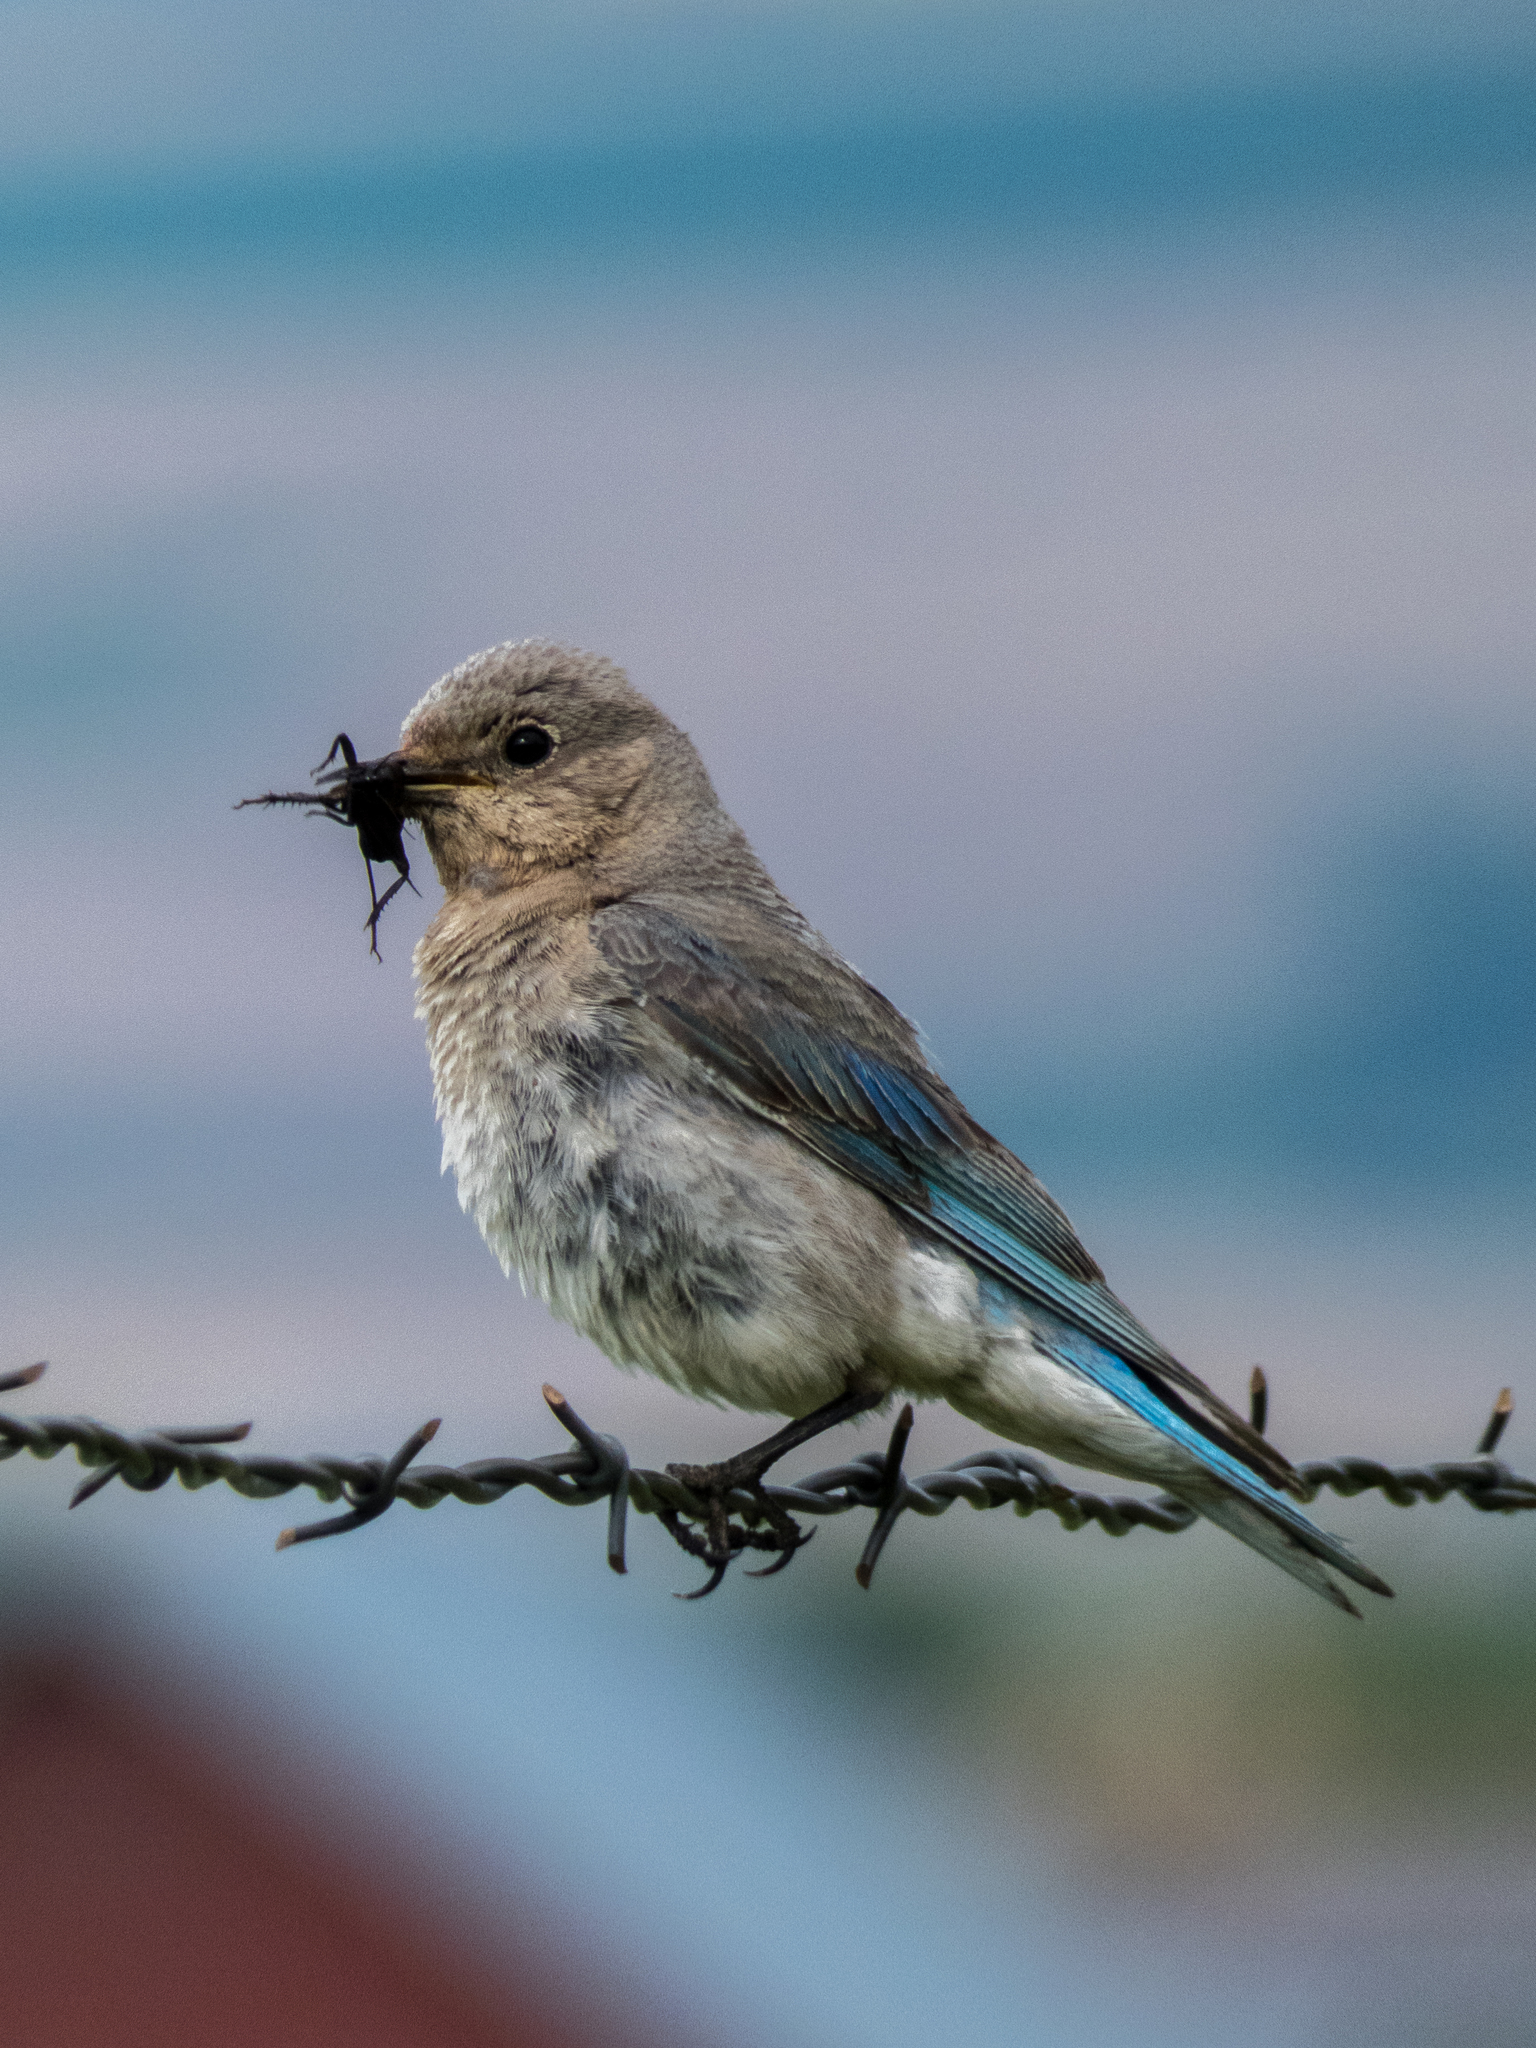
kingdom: Animalia
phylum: Chordata
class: Aves
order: Passeriformes
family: Turdidae
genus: Sialia
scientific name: Sialia currucoides
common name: Mountain bluebird
